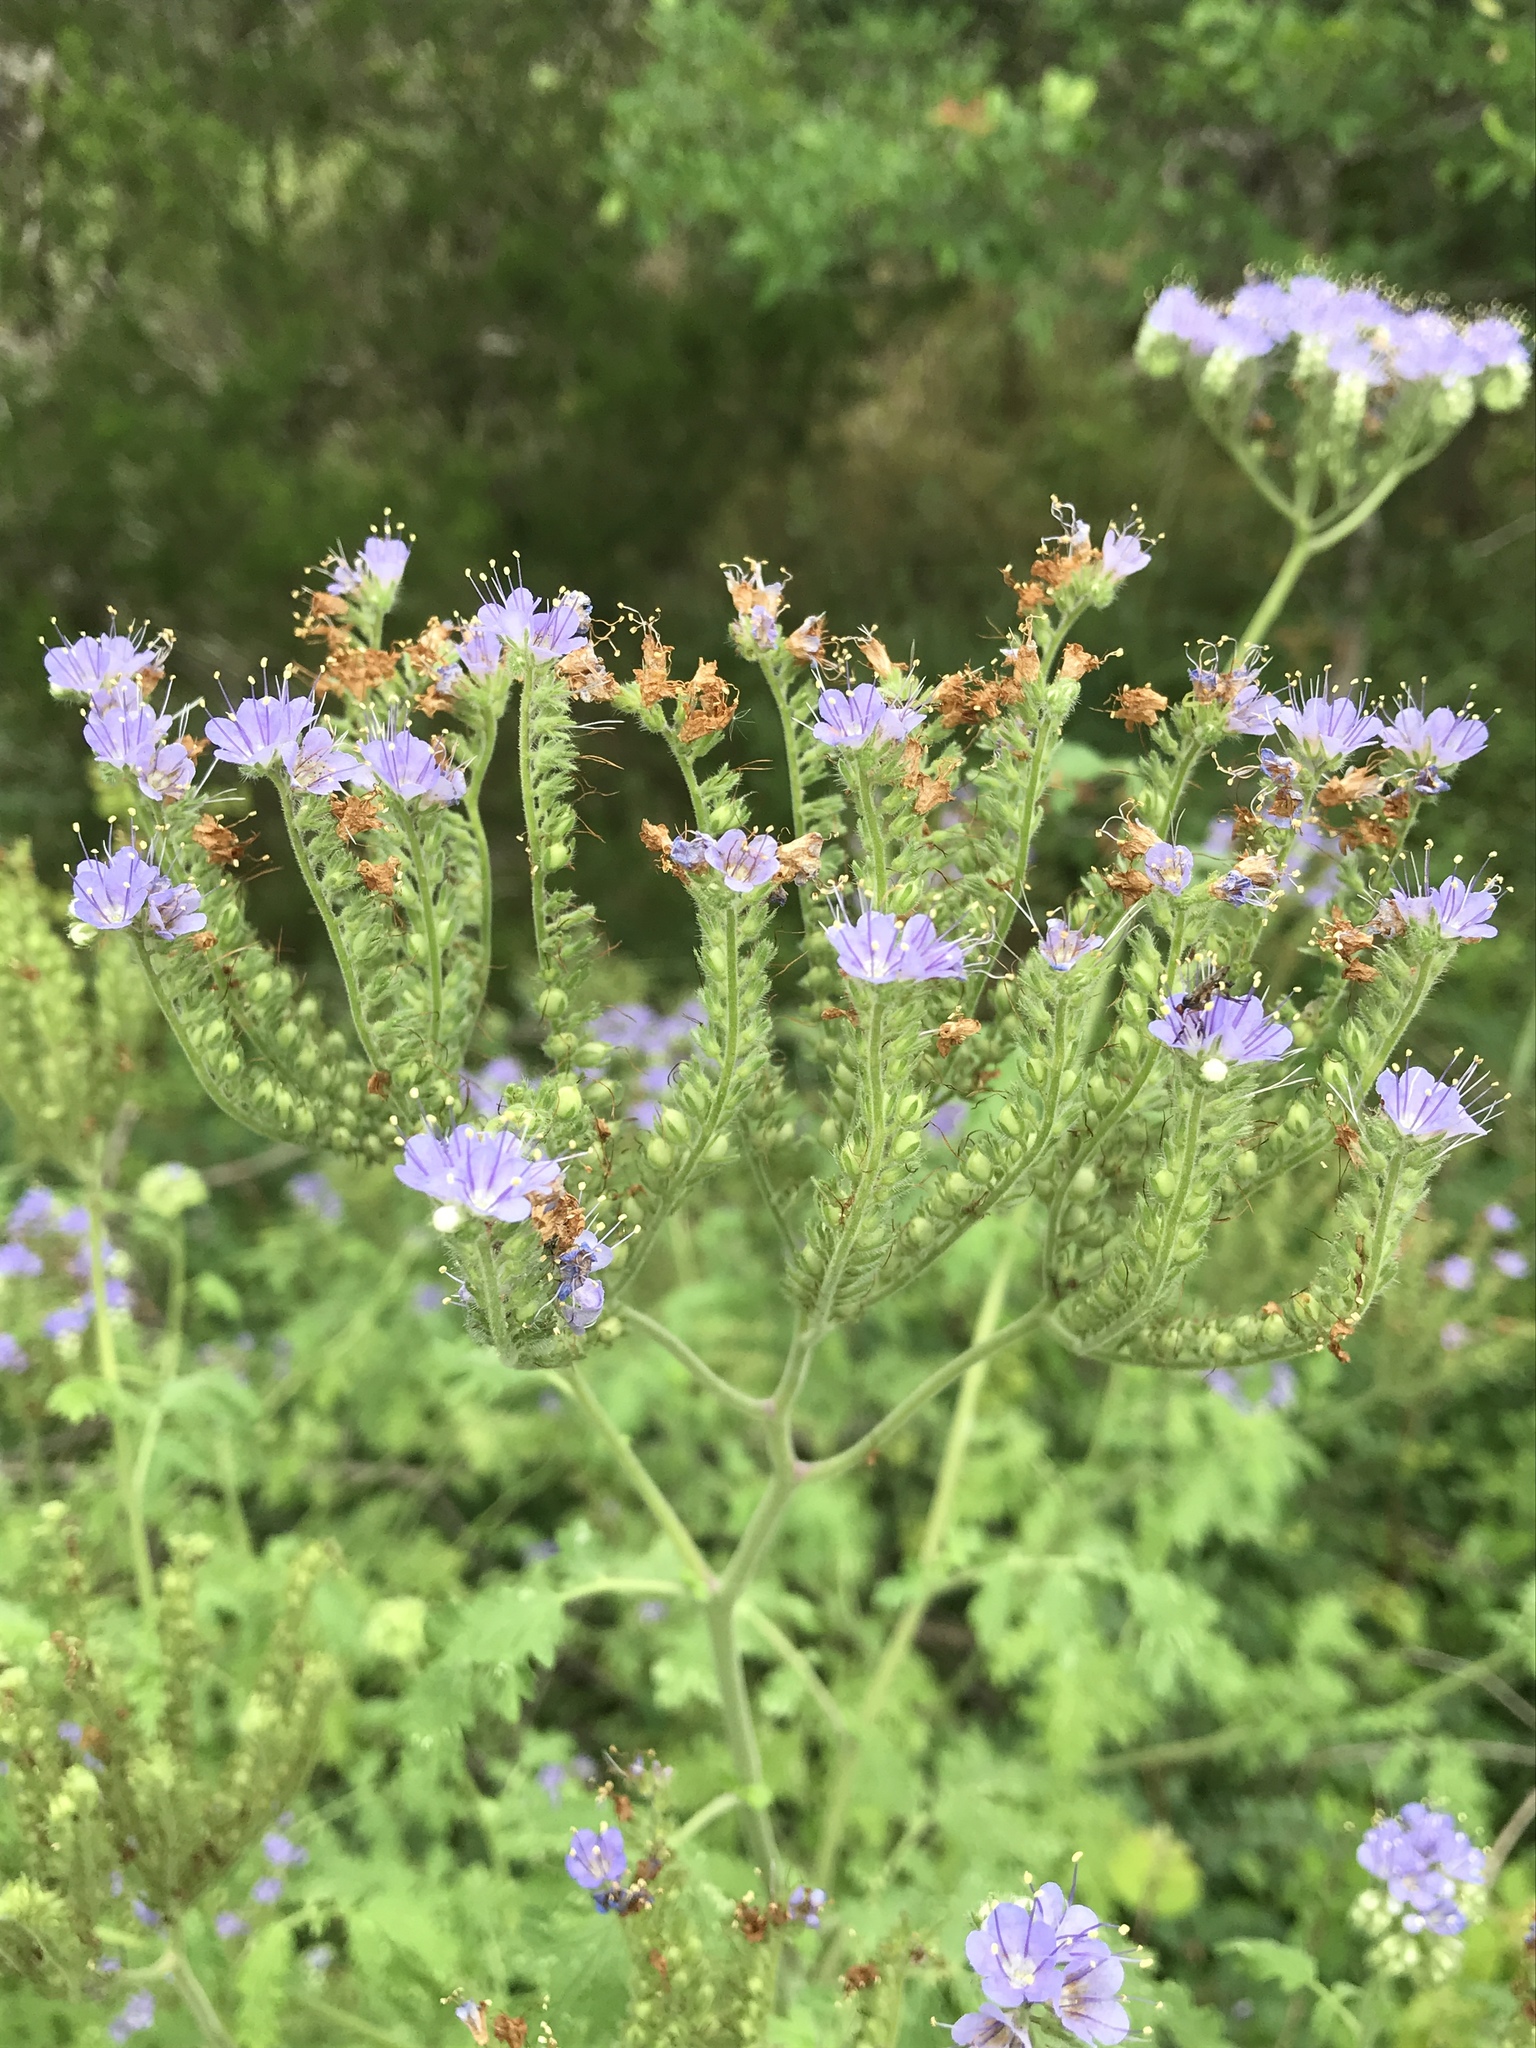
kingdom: Plantae
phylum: Tracheophyta
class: Magnoliopsida
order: Boraginales
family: Hydrophyllaceae
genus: Phacelia
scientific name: Phacelia congesta
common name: Blue curls
